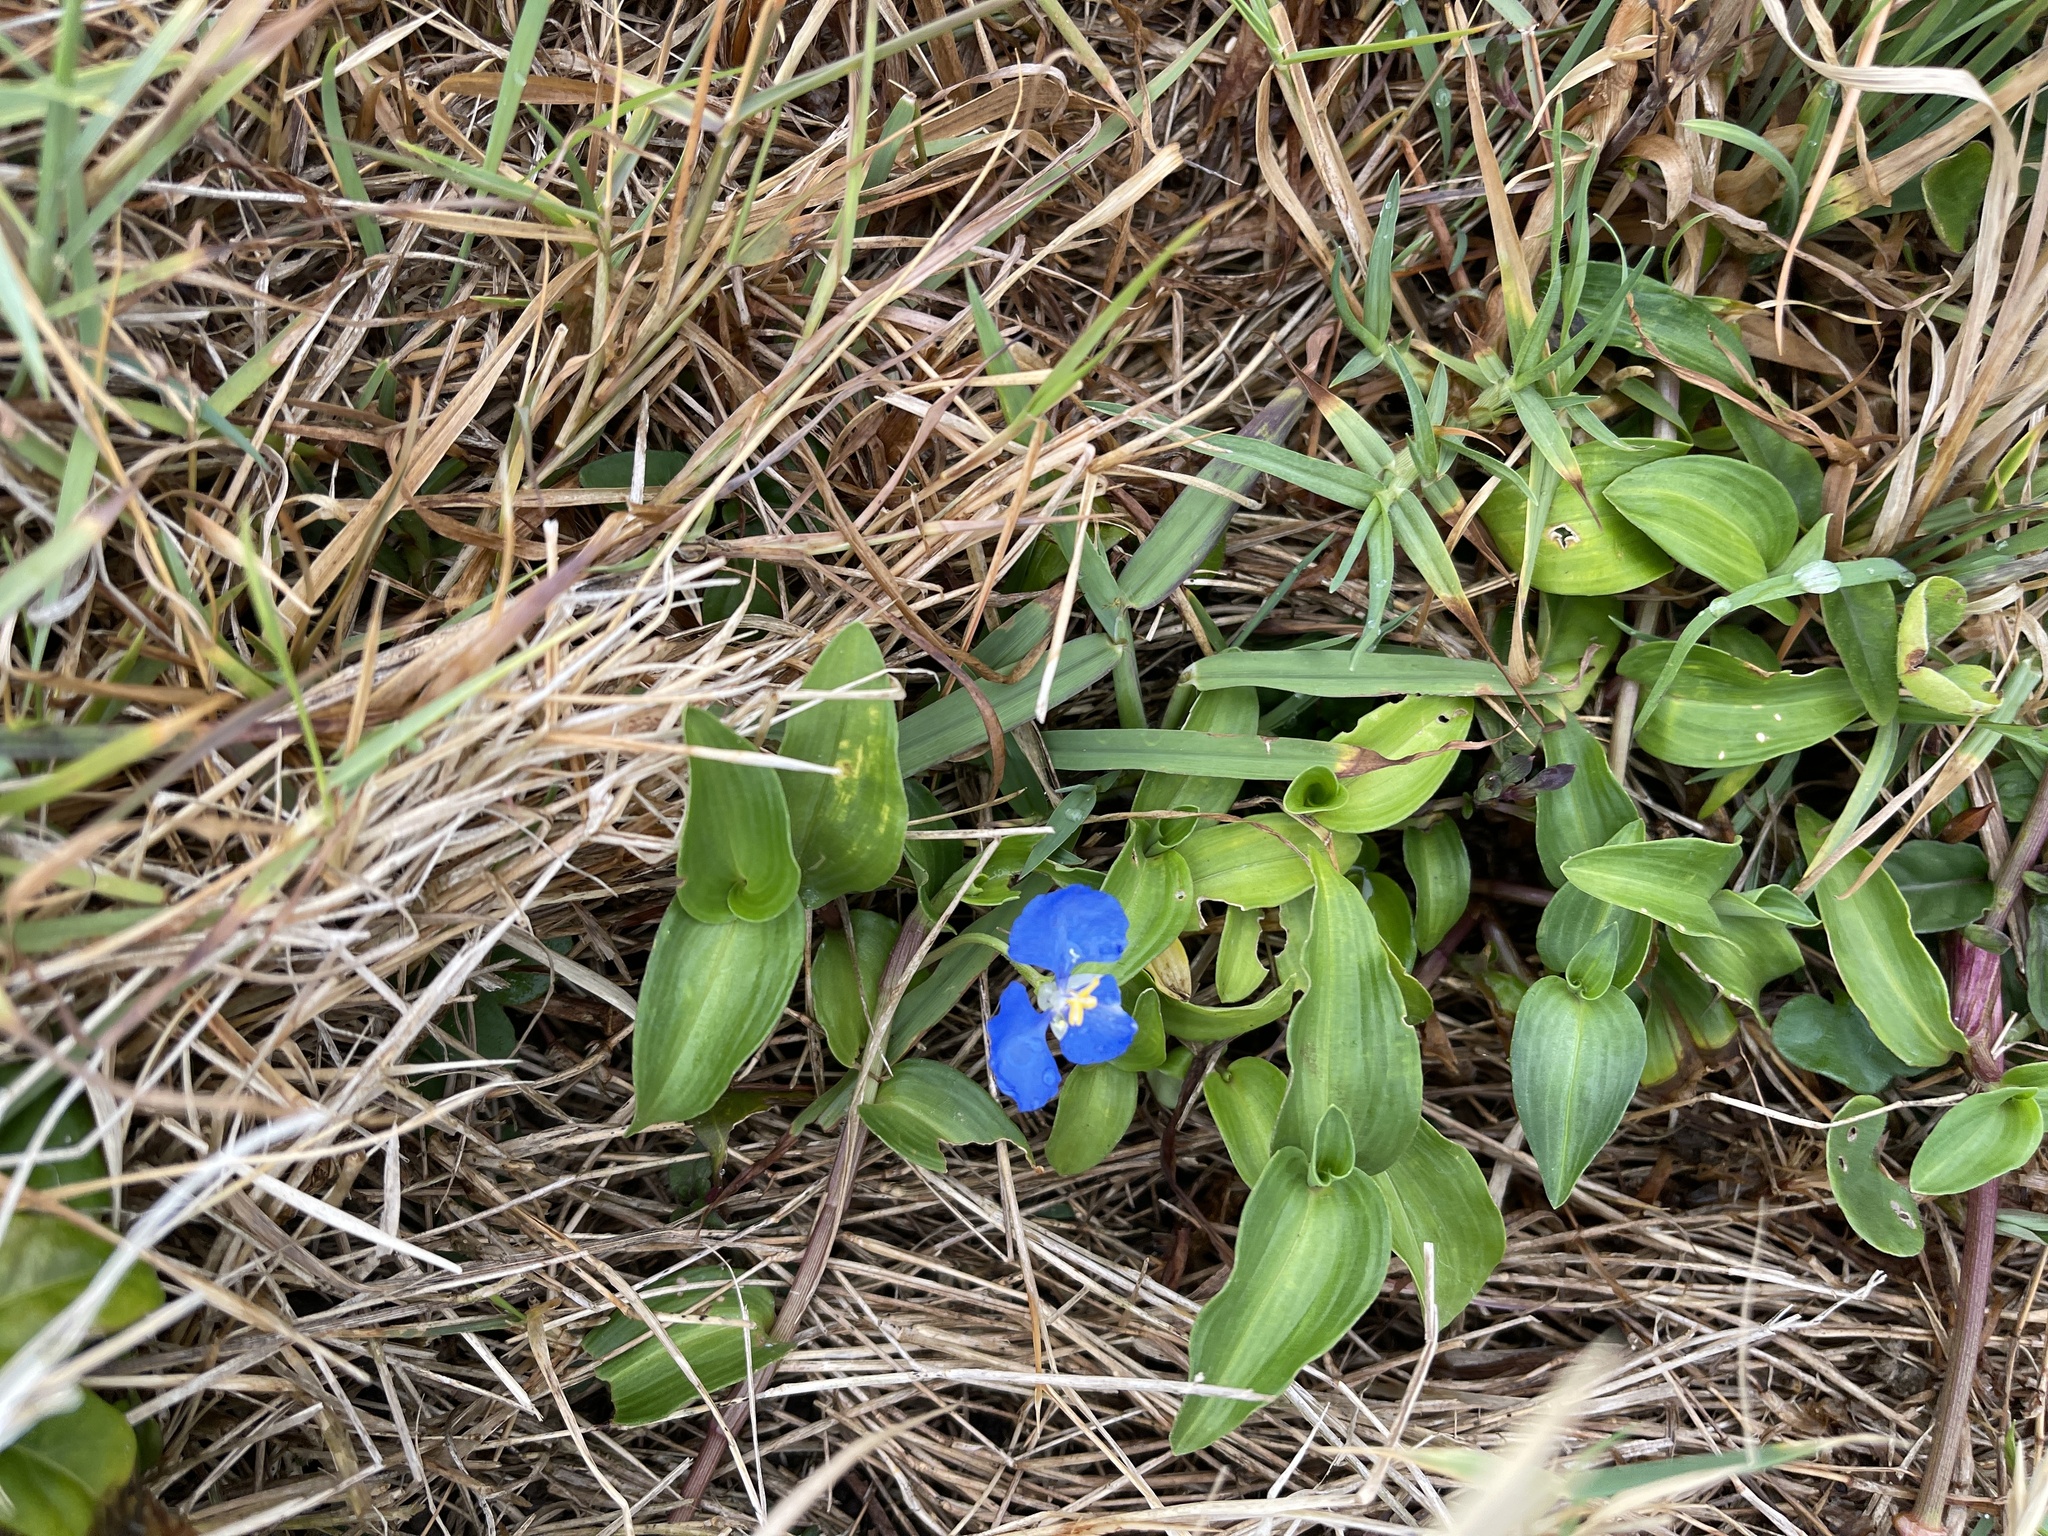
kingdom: Plantae
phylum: Tracheophyta
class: Liliopsida
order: Commelinales
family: Commelinaceae
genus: Commelina
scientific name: Commelina cyanea
